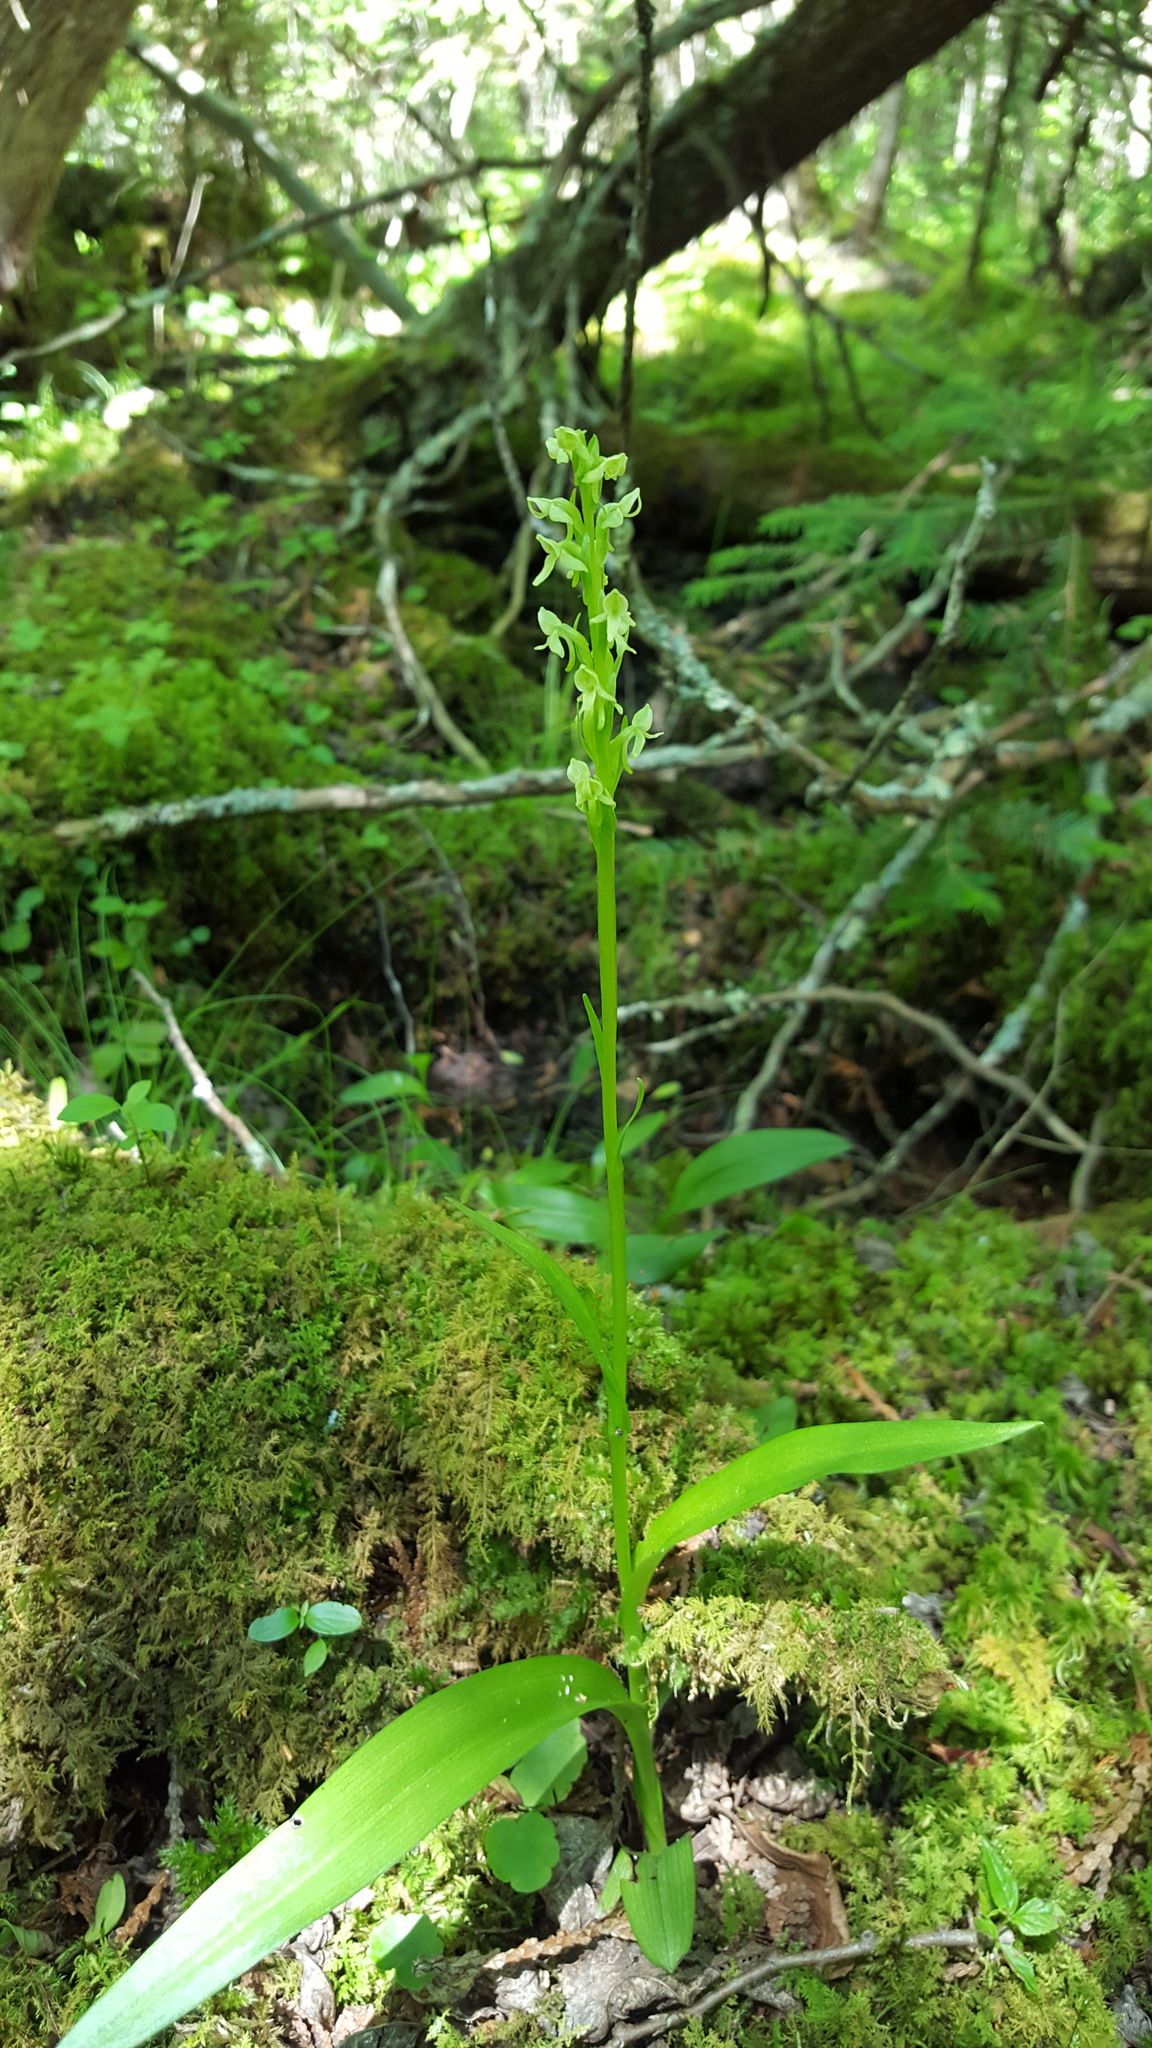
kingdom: Plantae
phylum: Tracheophyta
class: Liliopsida
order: Asparagales
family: Orchidaceae
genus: Platanthera
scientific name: Platanthera huronensis
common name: Fragrant green orchid
